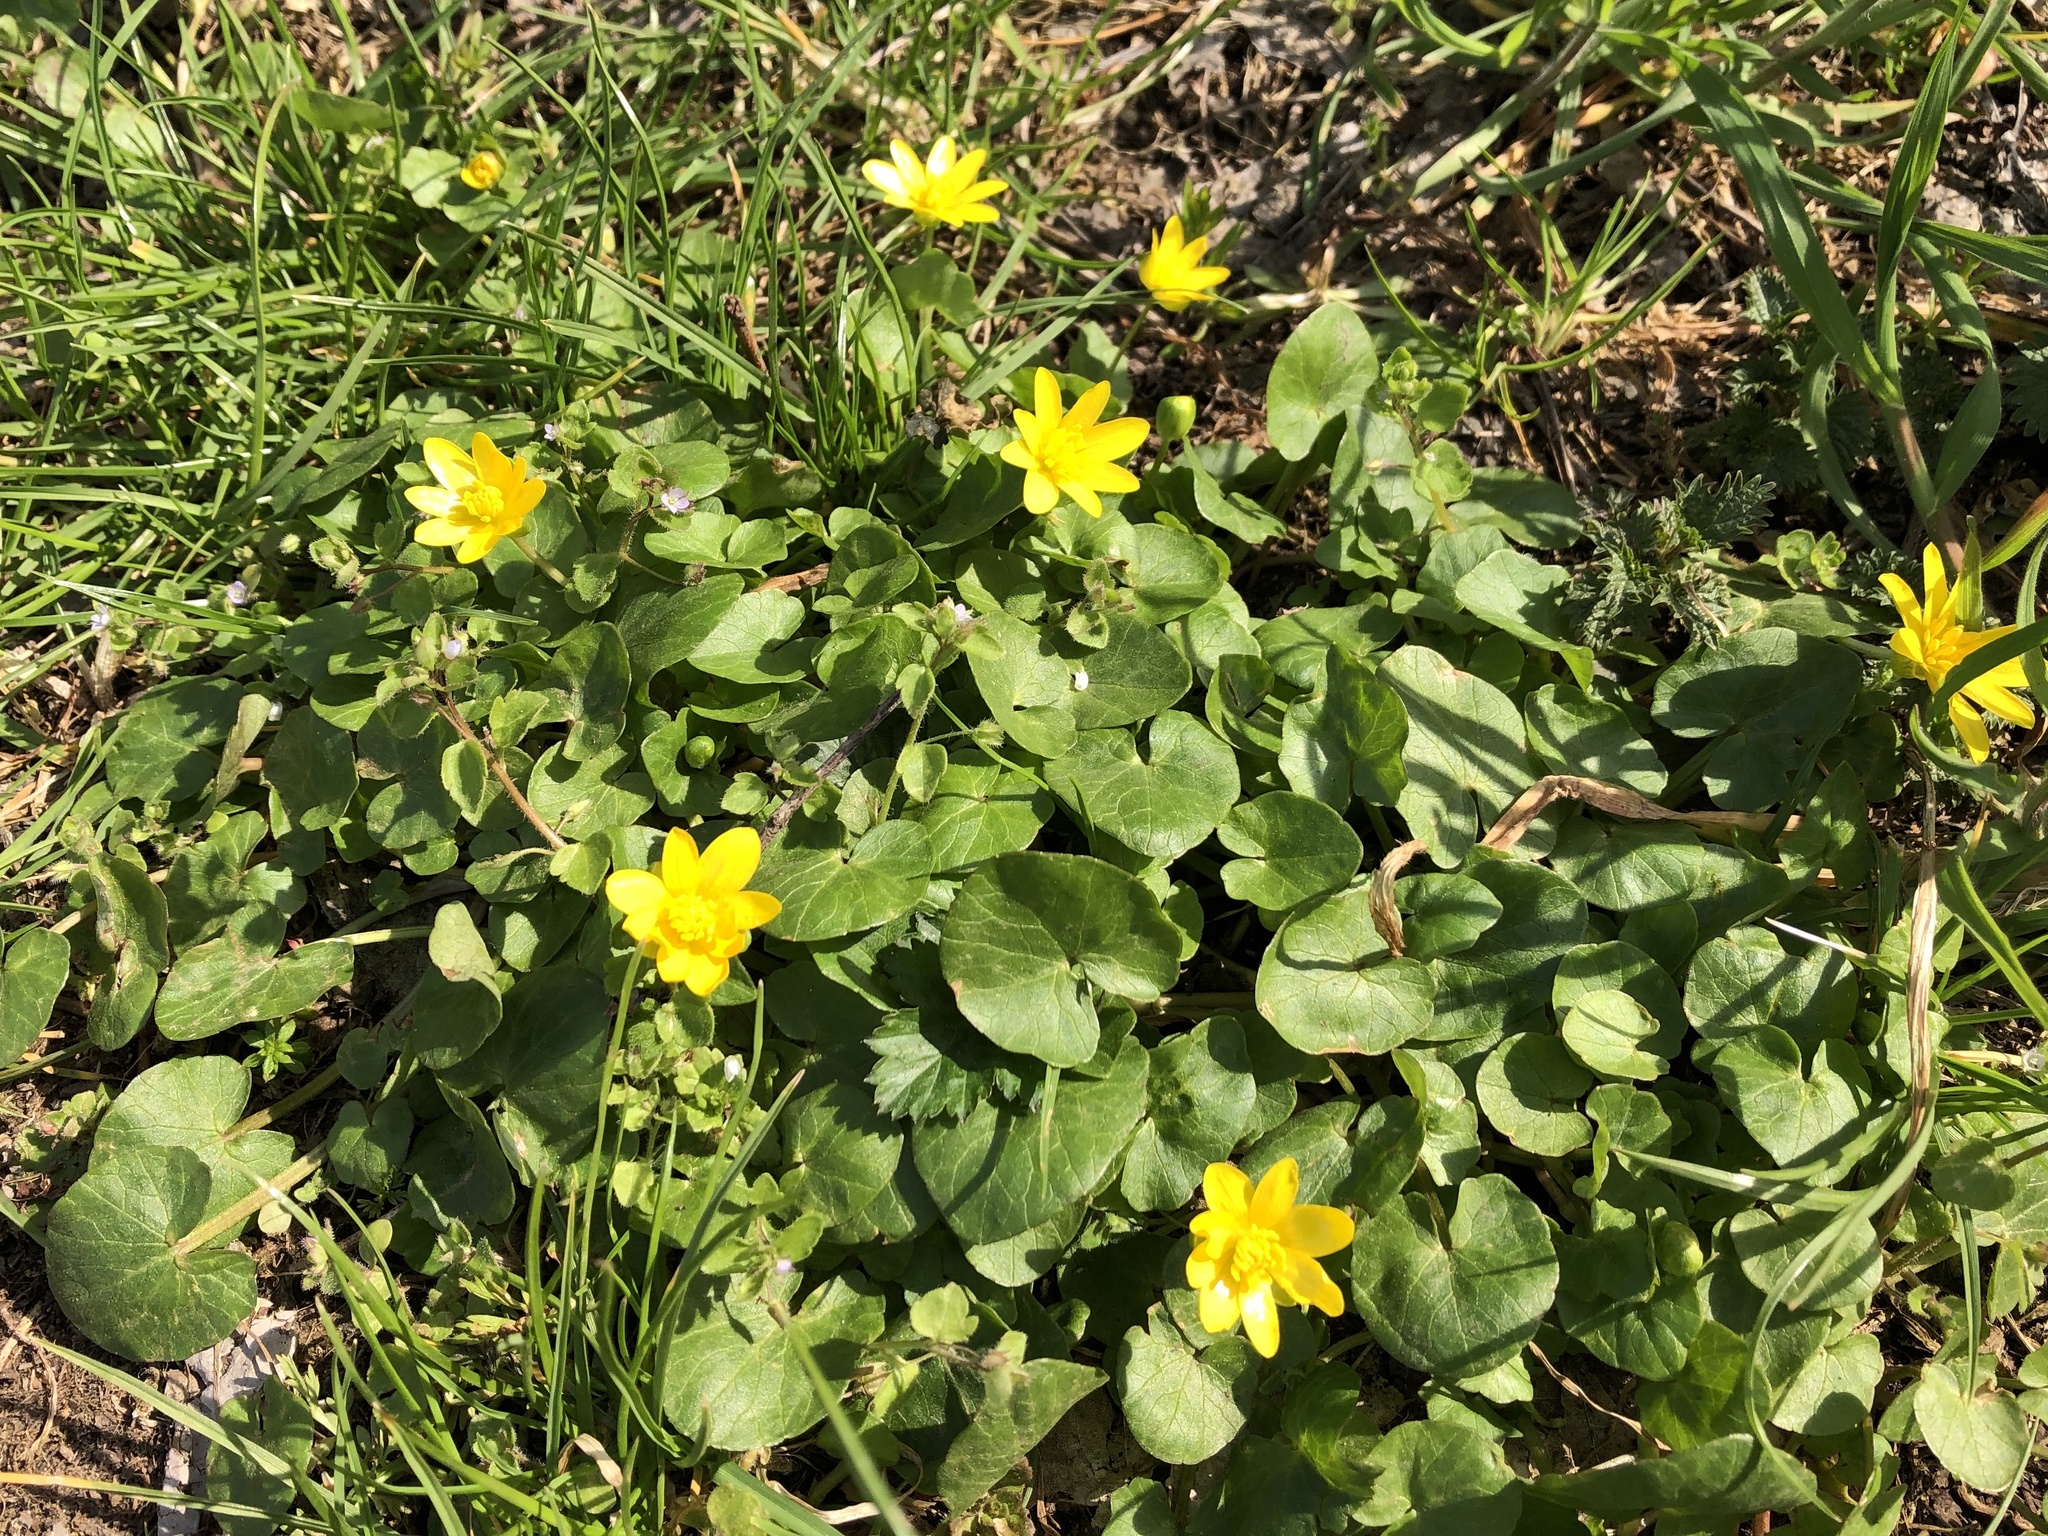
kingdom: Plantae
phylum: Tracheophyta
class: Magnoliopsida
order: Ranunculales
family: Ranunculaceae
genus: Ficaria
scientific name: Ficaria verna
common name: Lesser celandine
